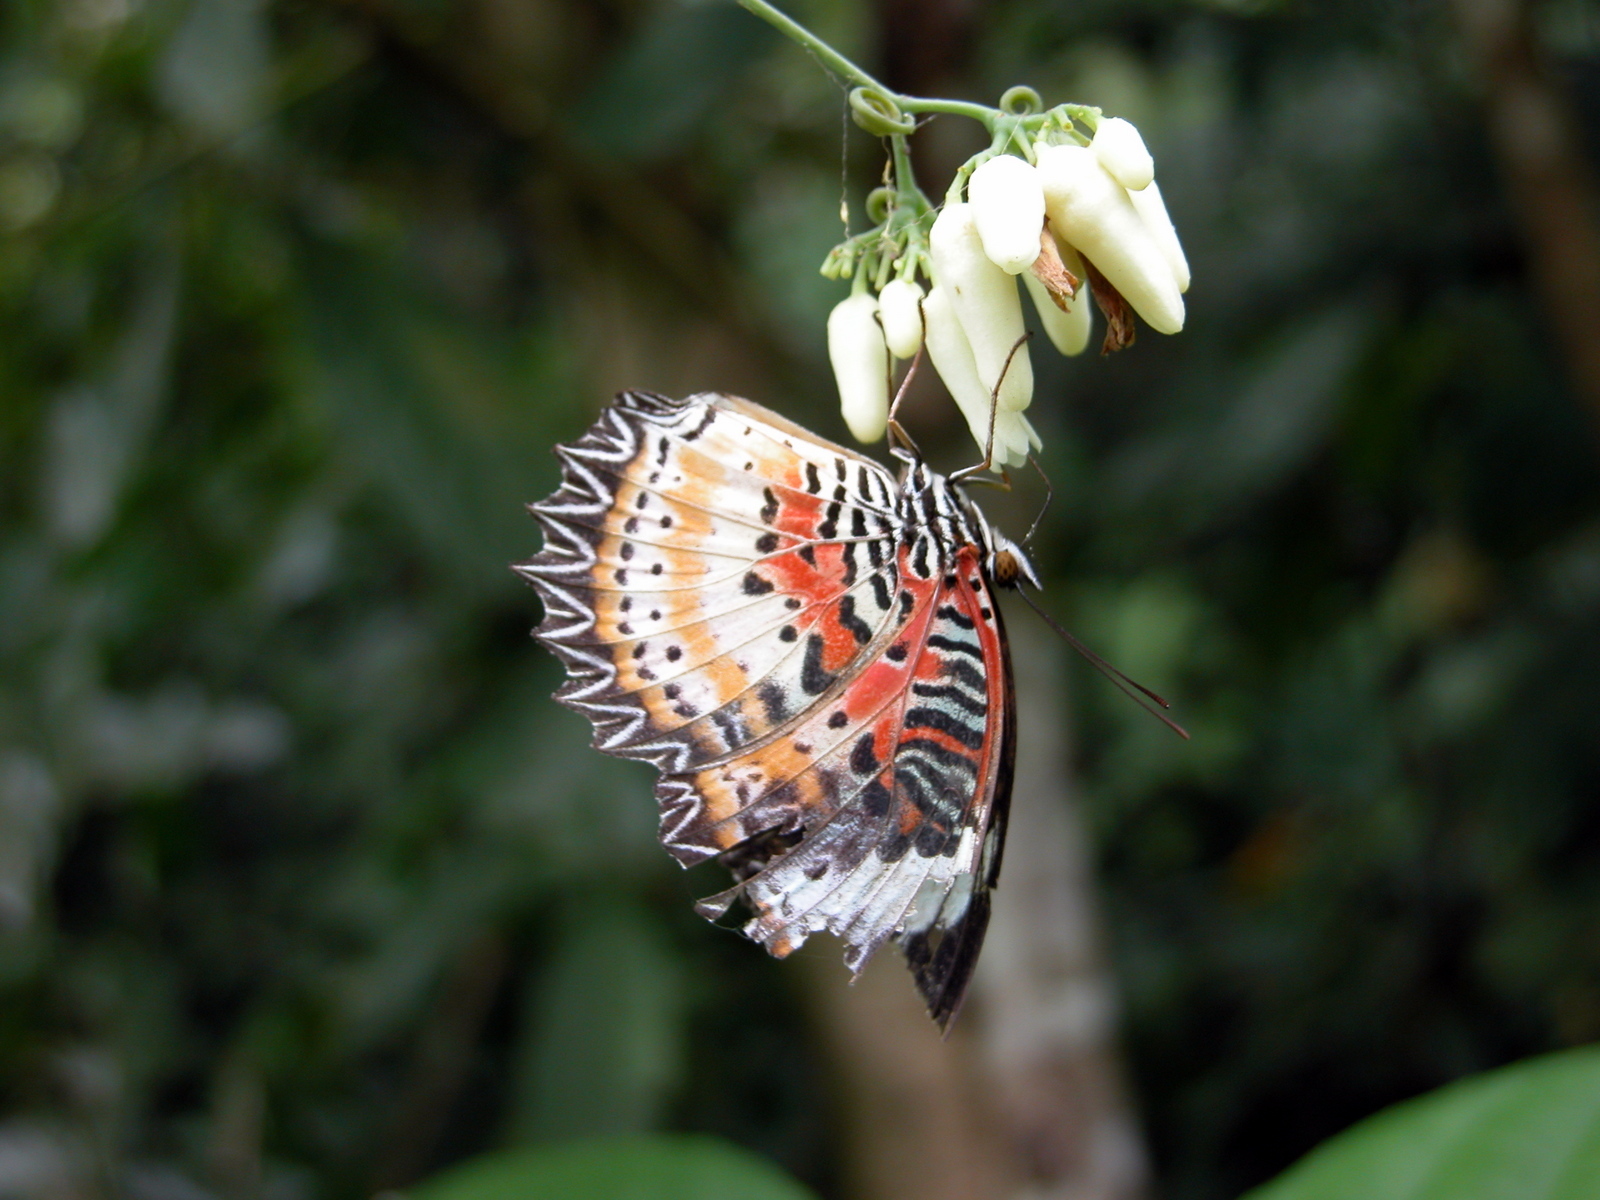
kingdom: Animalia
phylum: Arthropoda
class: Insecta
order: Lepidoptera
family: Nymphalidae
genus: Cethosia
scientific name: Cethosia cyane
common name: Leopard lacewing butterfly
